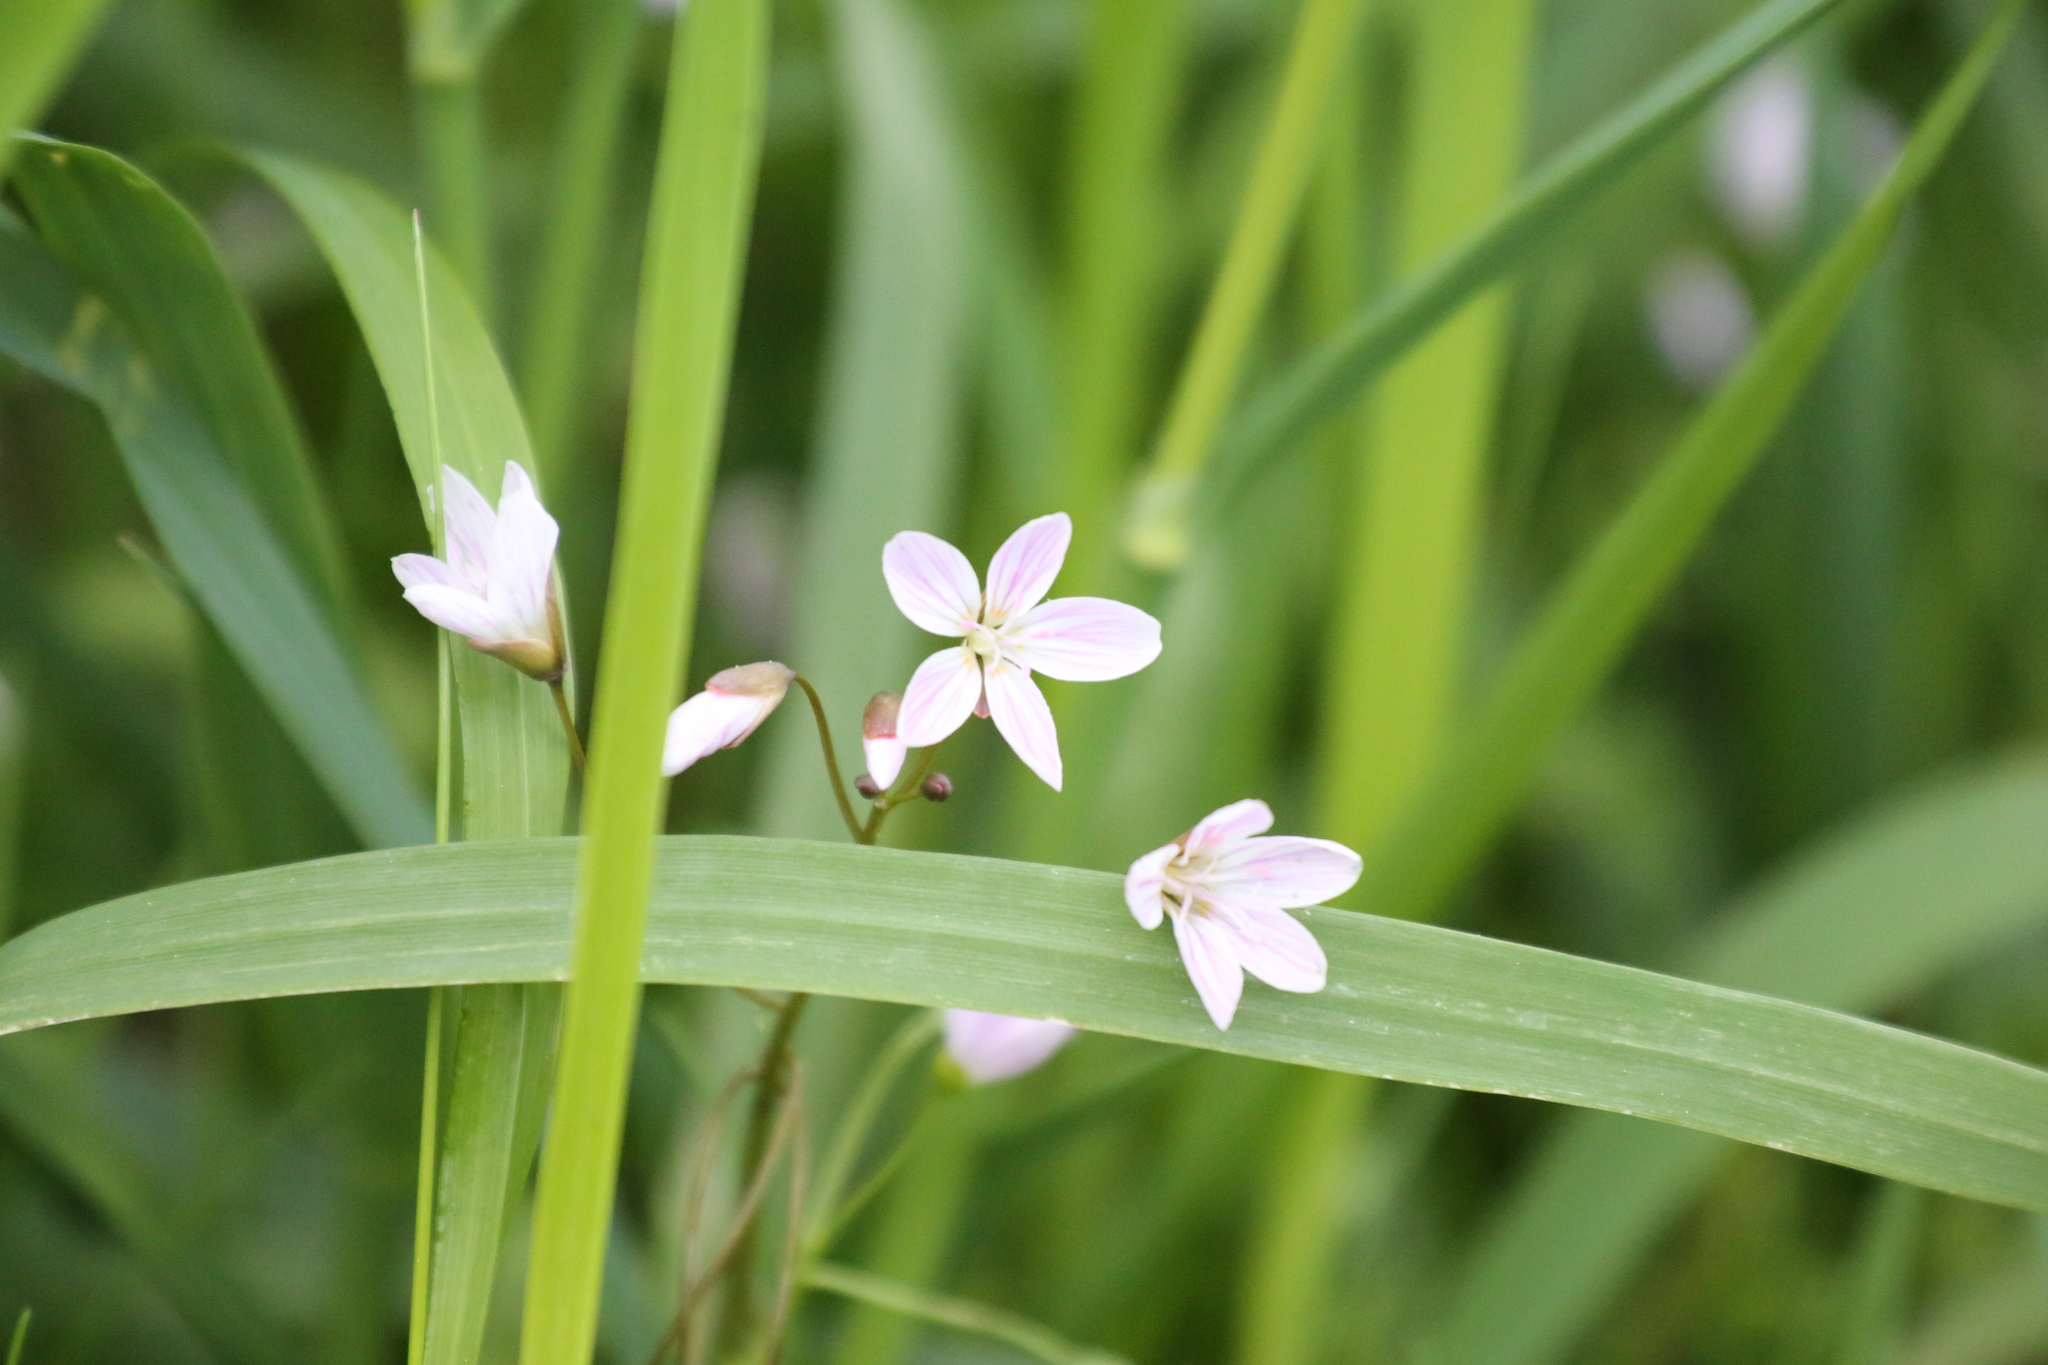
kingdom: Plantae
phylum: Tracheophyta
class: Magnoliopsida
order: Caryophyllales
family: Montiaceae
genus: Claytonia
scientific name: Claytonia virginica
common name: Virginia springbeauty
